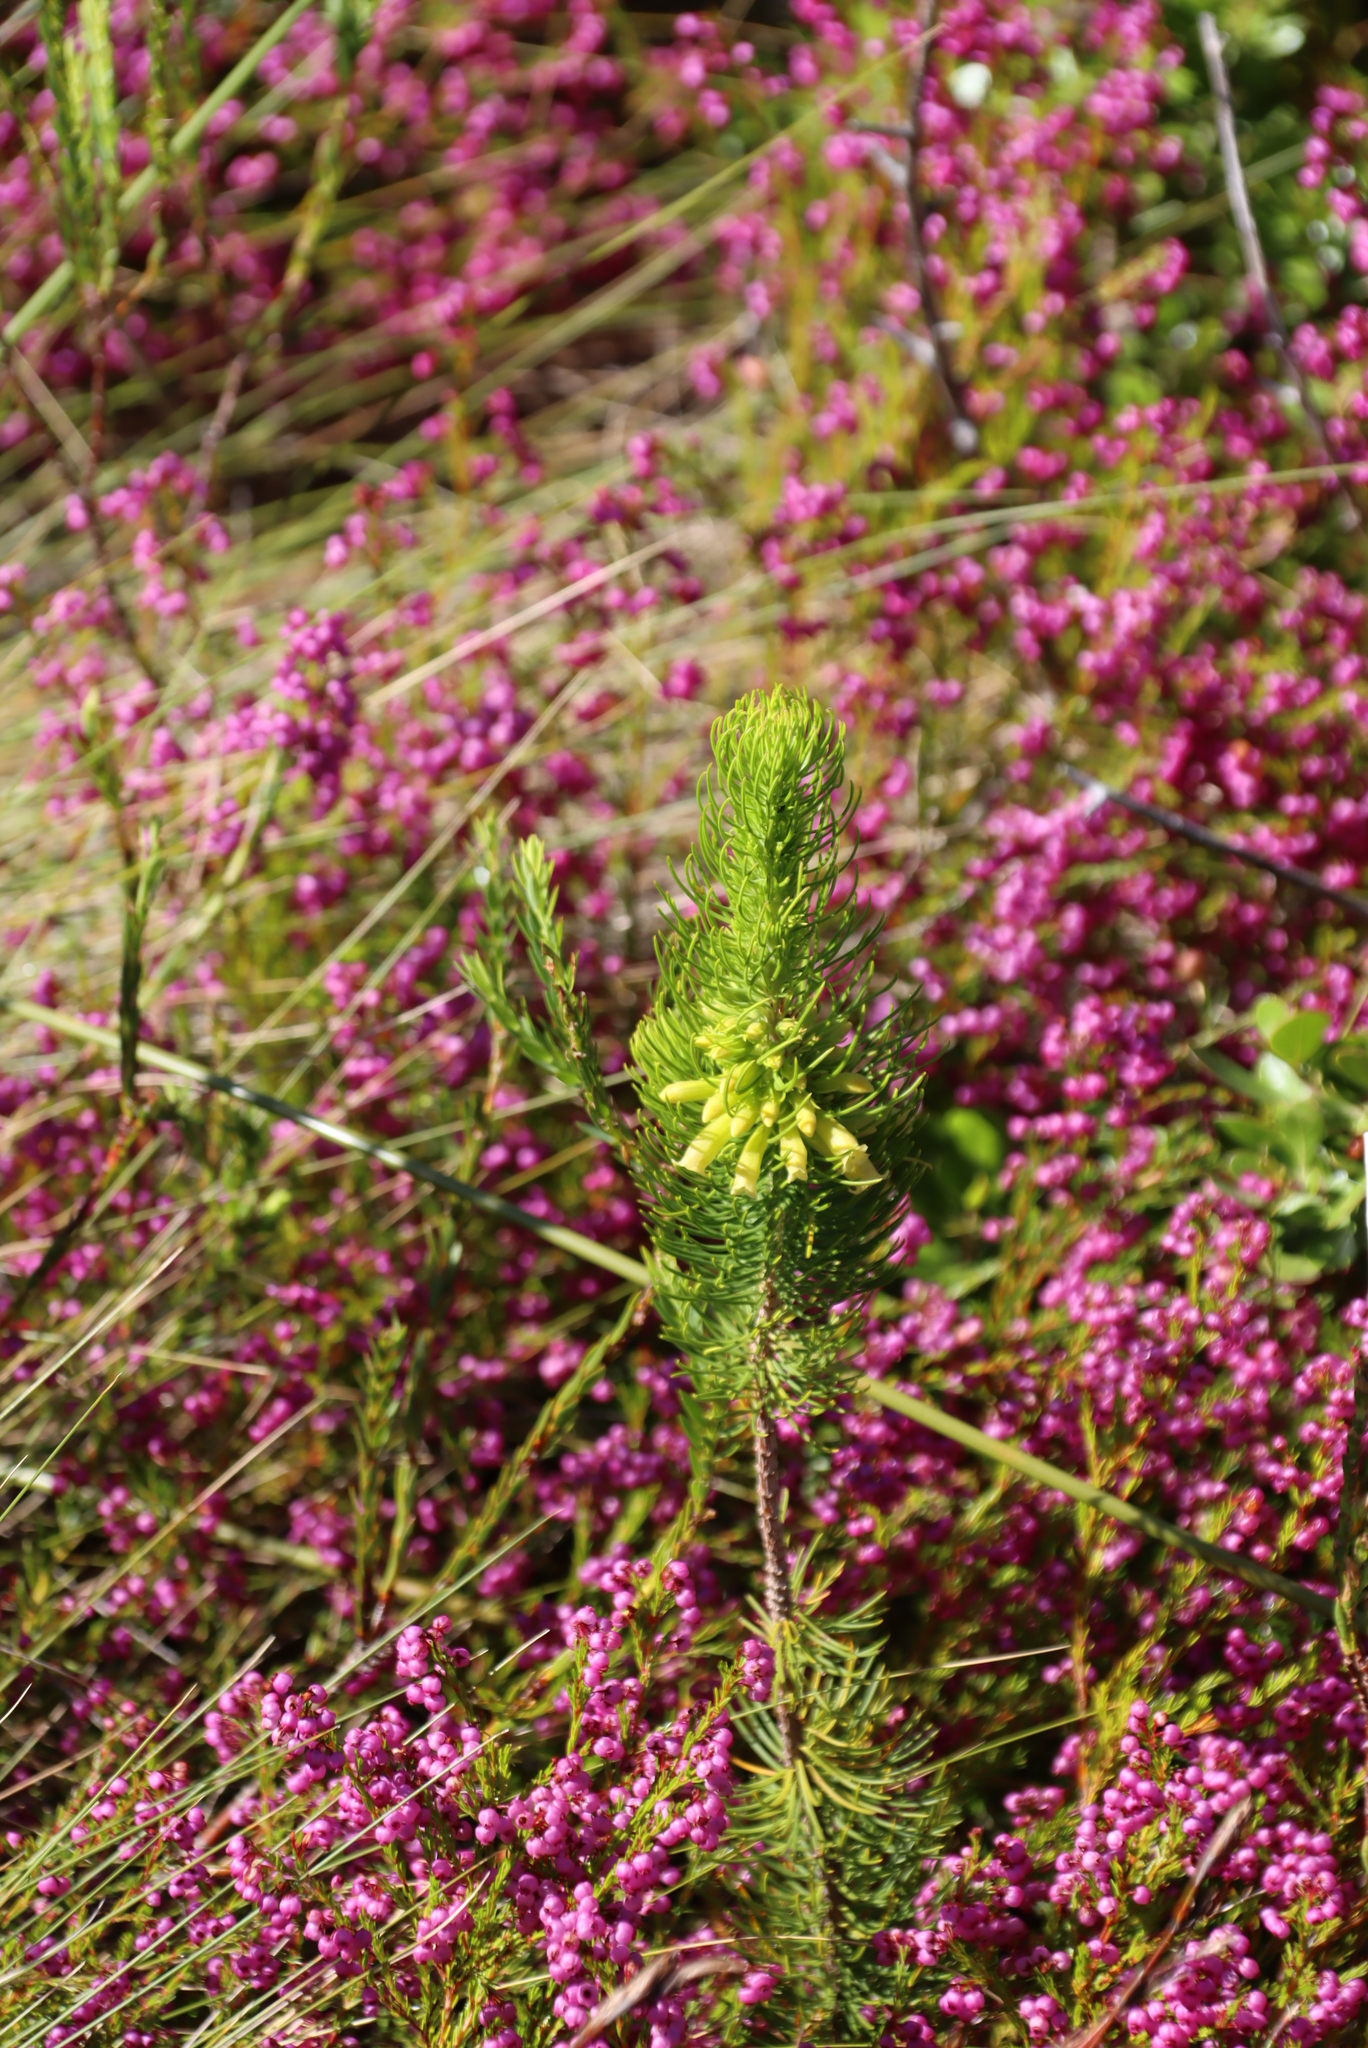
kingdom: Plantae
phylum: Tracheophyta
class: Magnoliopsida
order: Ericales
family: Ericaceae
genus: Erica
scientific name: Erica viscaria
